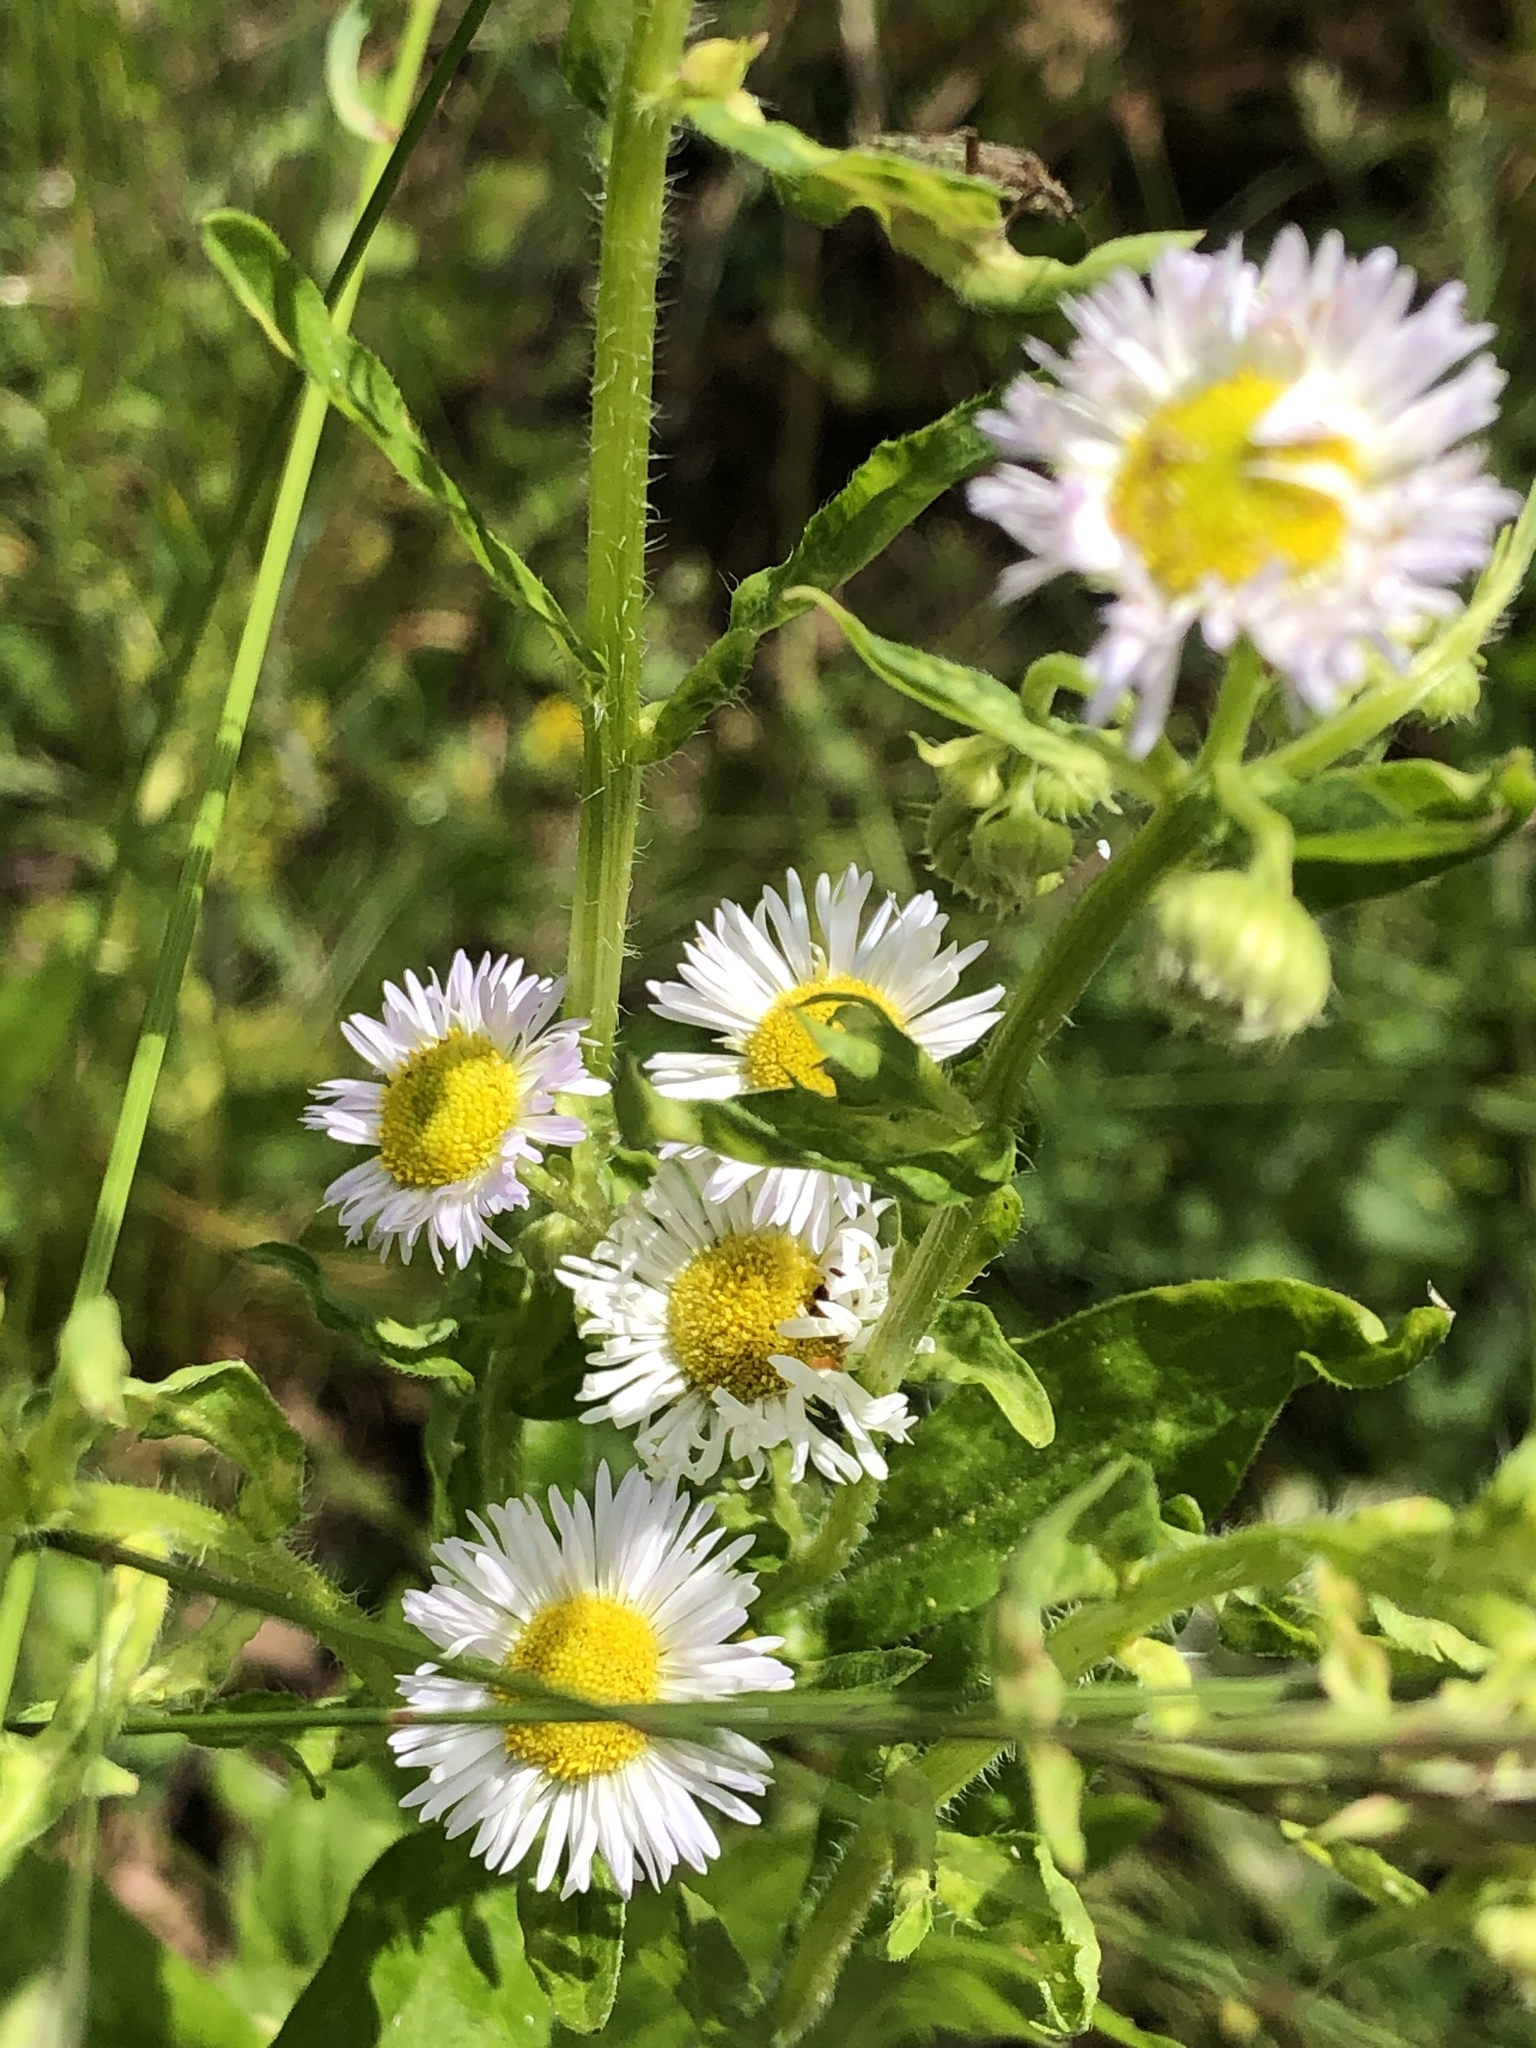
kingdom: Plantae
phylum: Tracheophyta
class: Magnoliopsida
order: Asterales
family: Asteraceae
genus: Erigeron
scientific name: Erigeron annuus
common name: Tall fleabane
